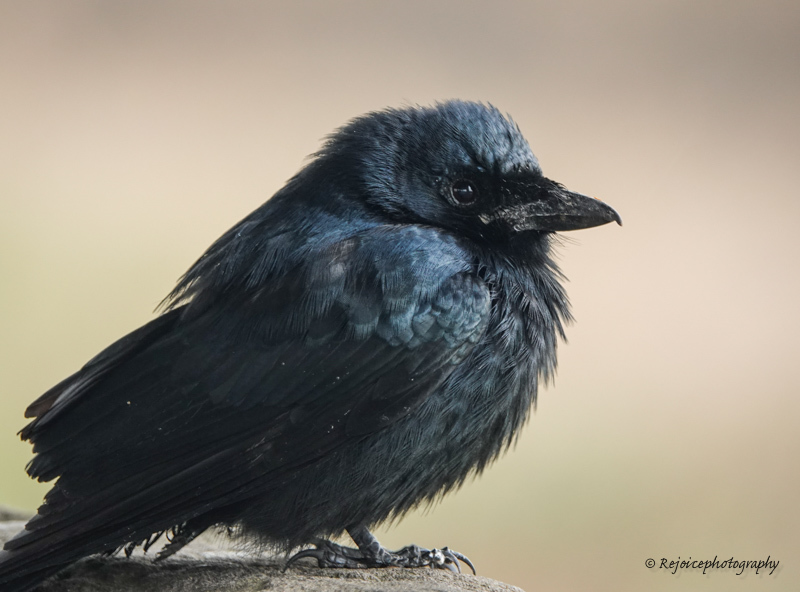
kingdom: Animalia
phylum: Chordata
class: Aves
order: Passeriformes
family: Dicruridae
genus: Dicrurus
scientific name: Dicrurus macrocercus
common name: Black drongo
